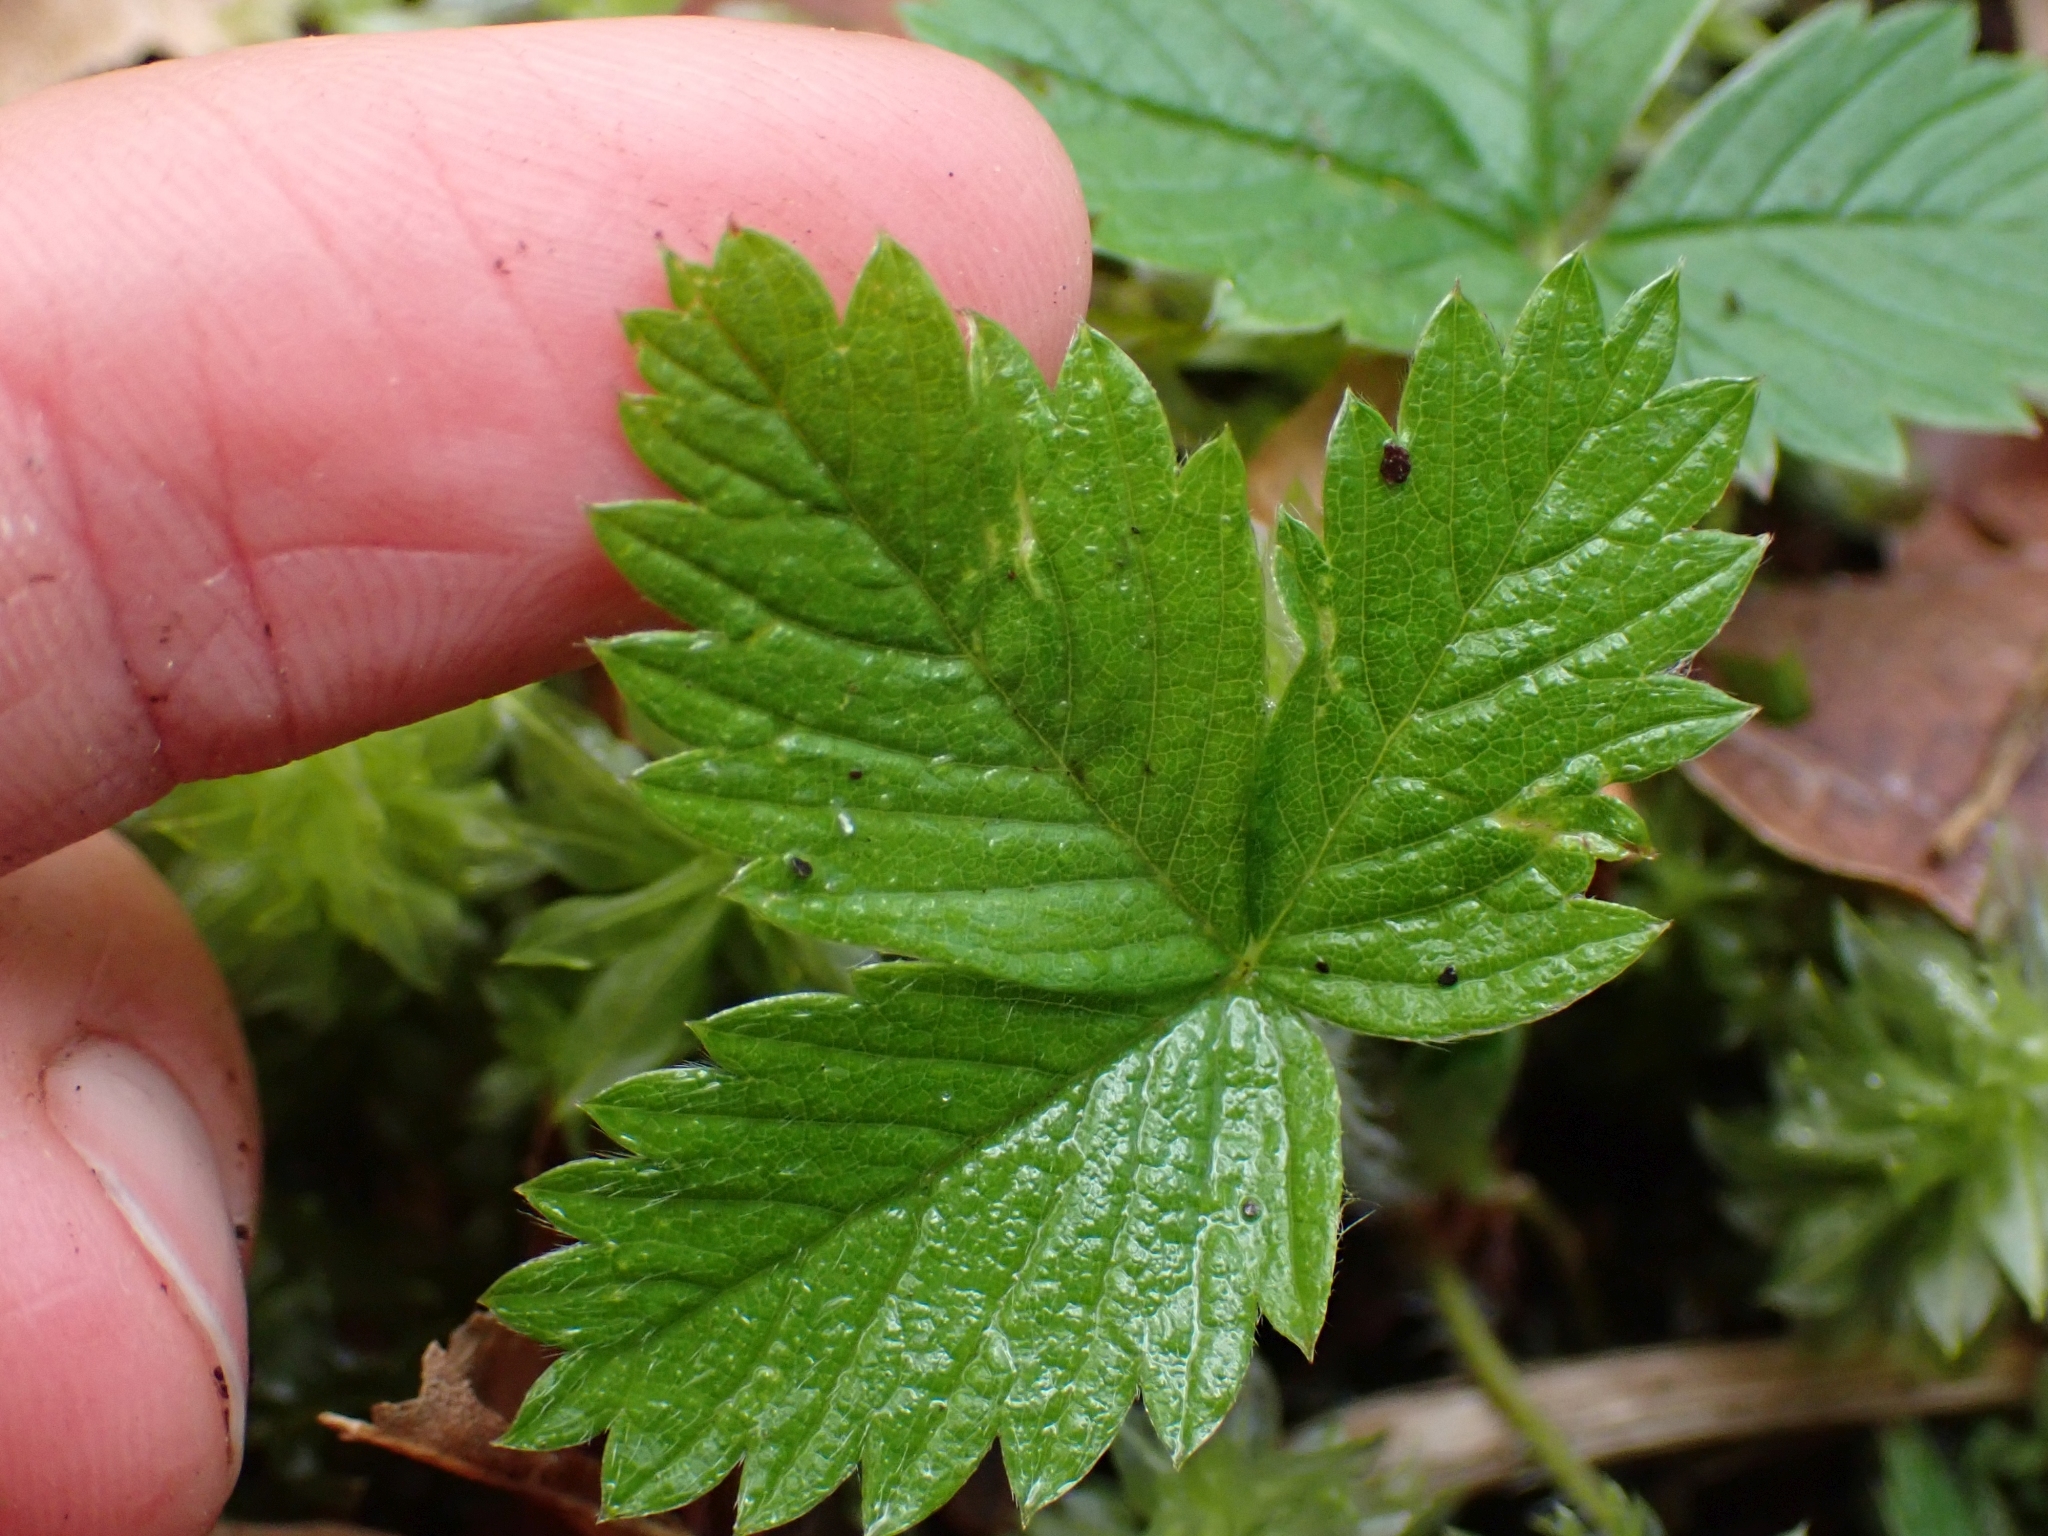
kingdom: Plantae
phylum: Tracheophyta
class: Magnoliopsida
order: Rosales
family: Rosaceae
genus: Fragaria
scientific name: Fragaria vesca
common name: Wild strawberry
